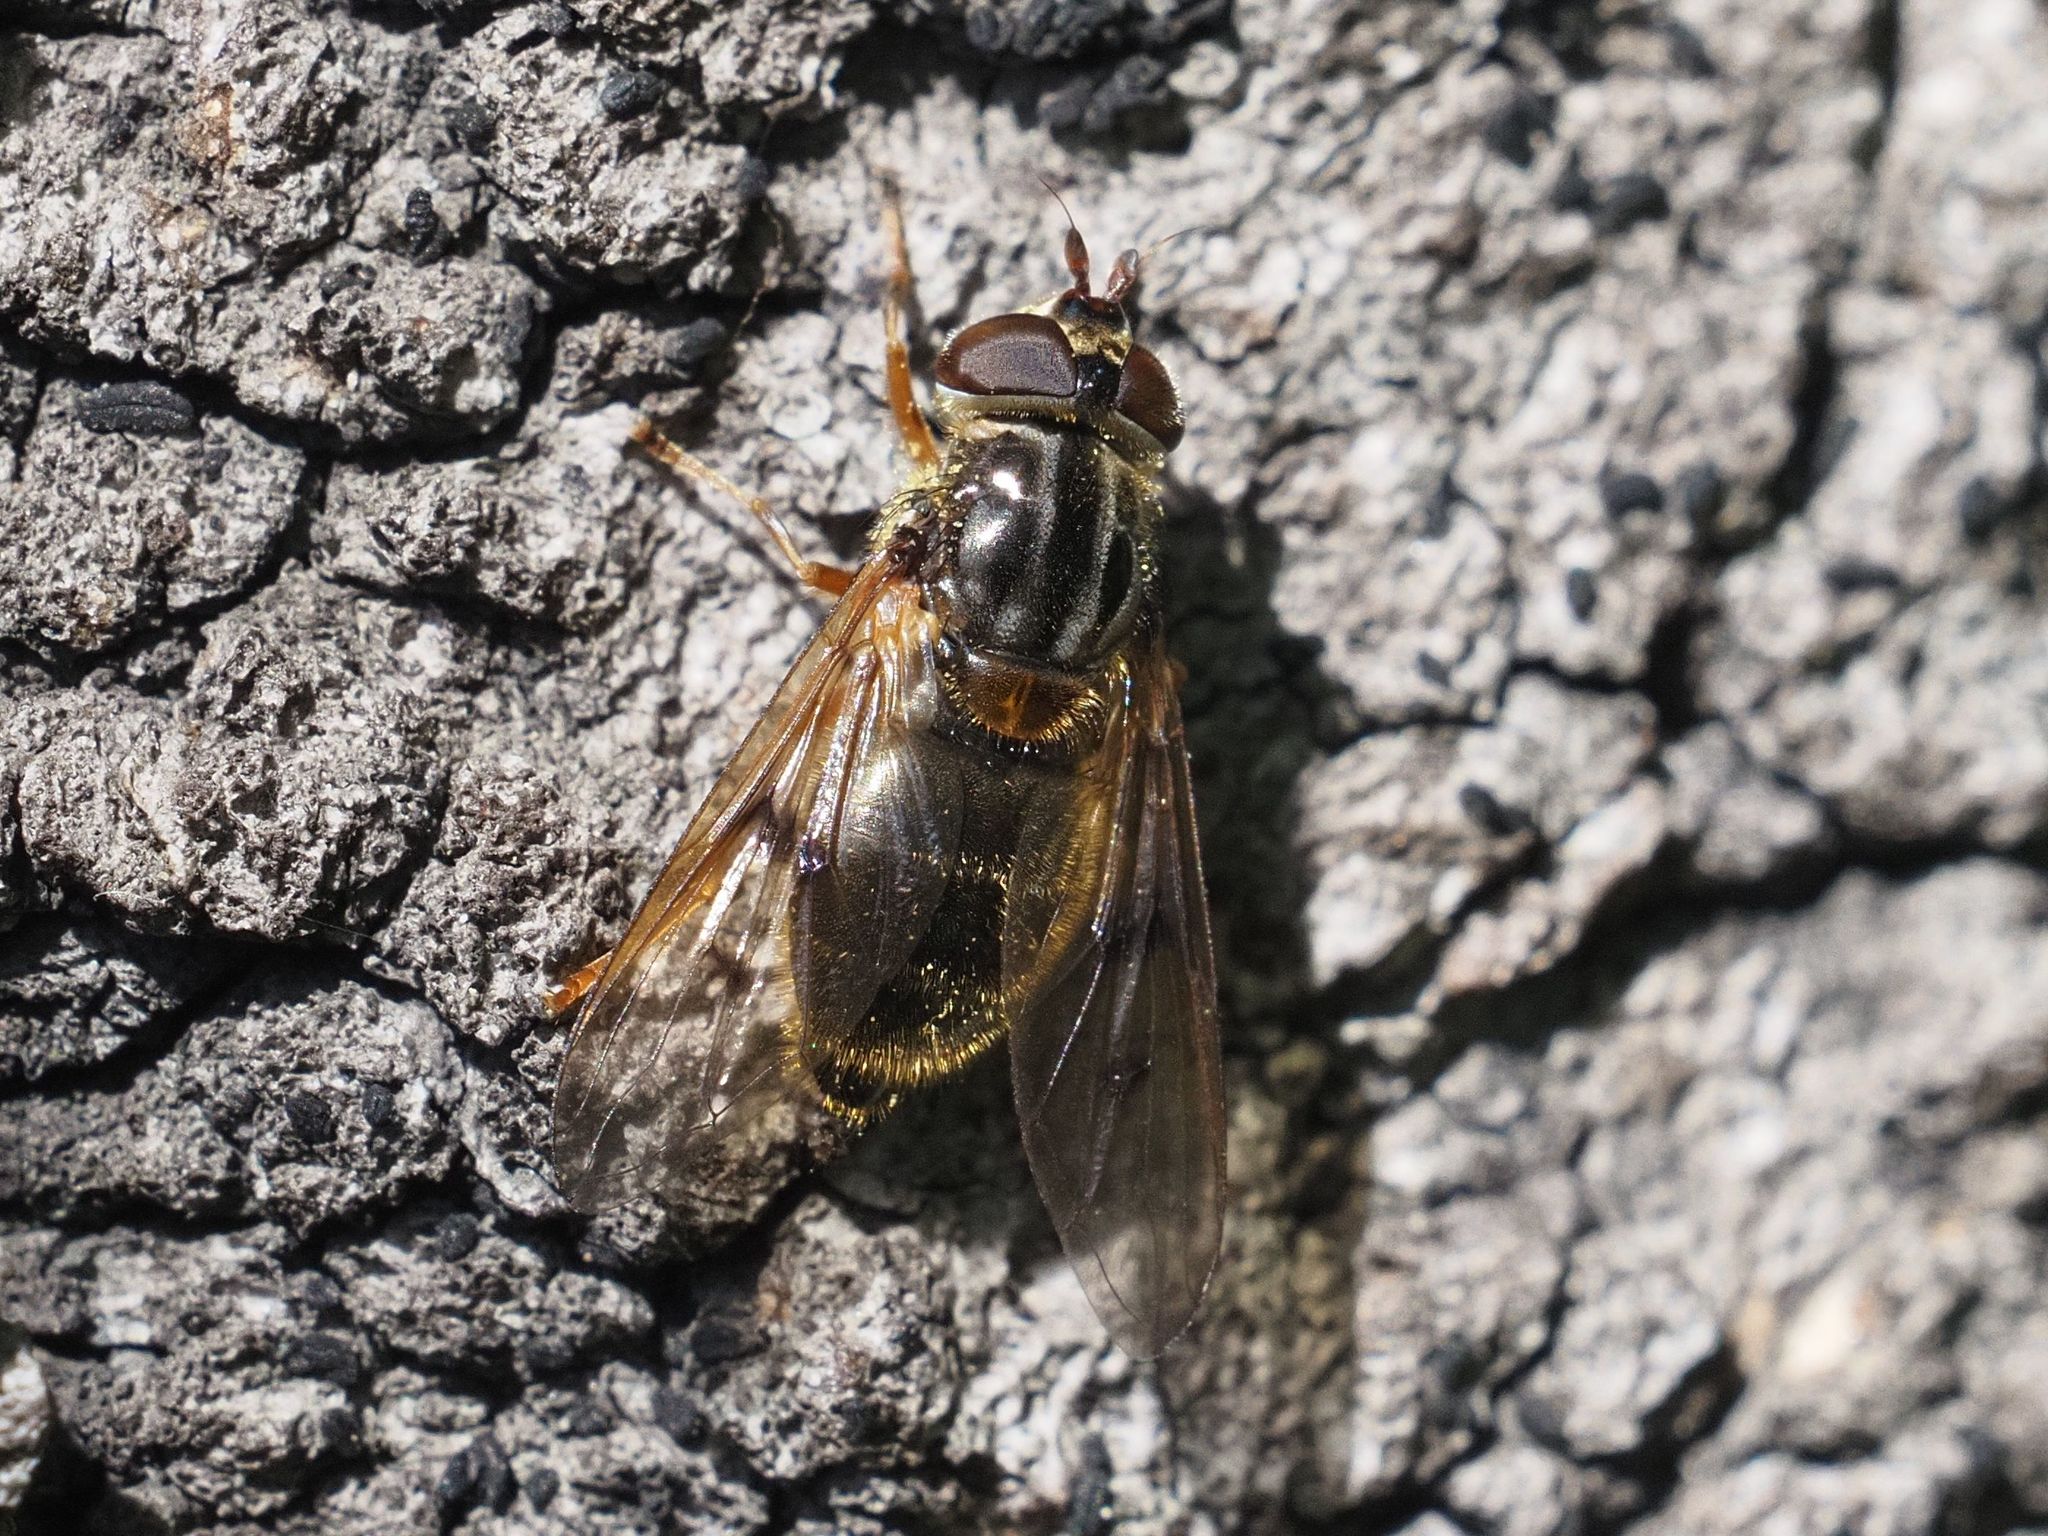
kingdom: Animalia
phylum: Arthropoda
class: Insecta
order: Diptera
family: Syrphidae
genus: Ferdinandea
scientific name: Ferdinandea cuprea
